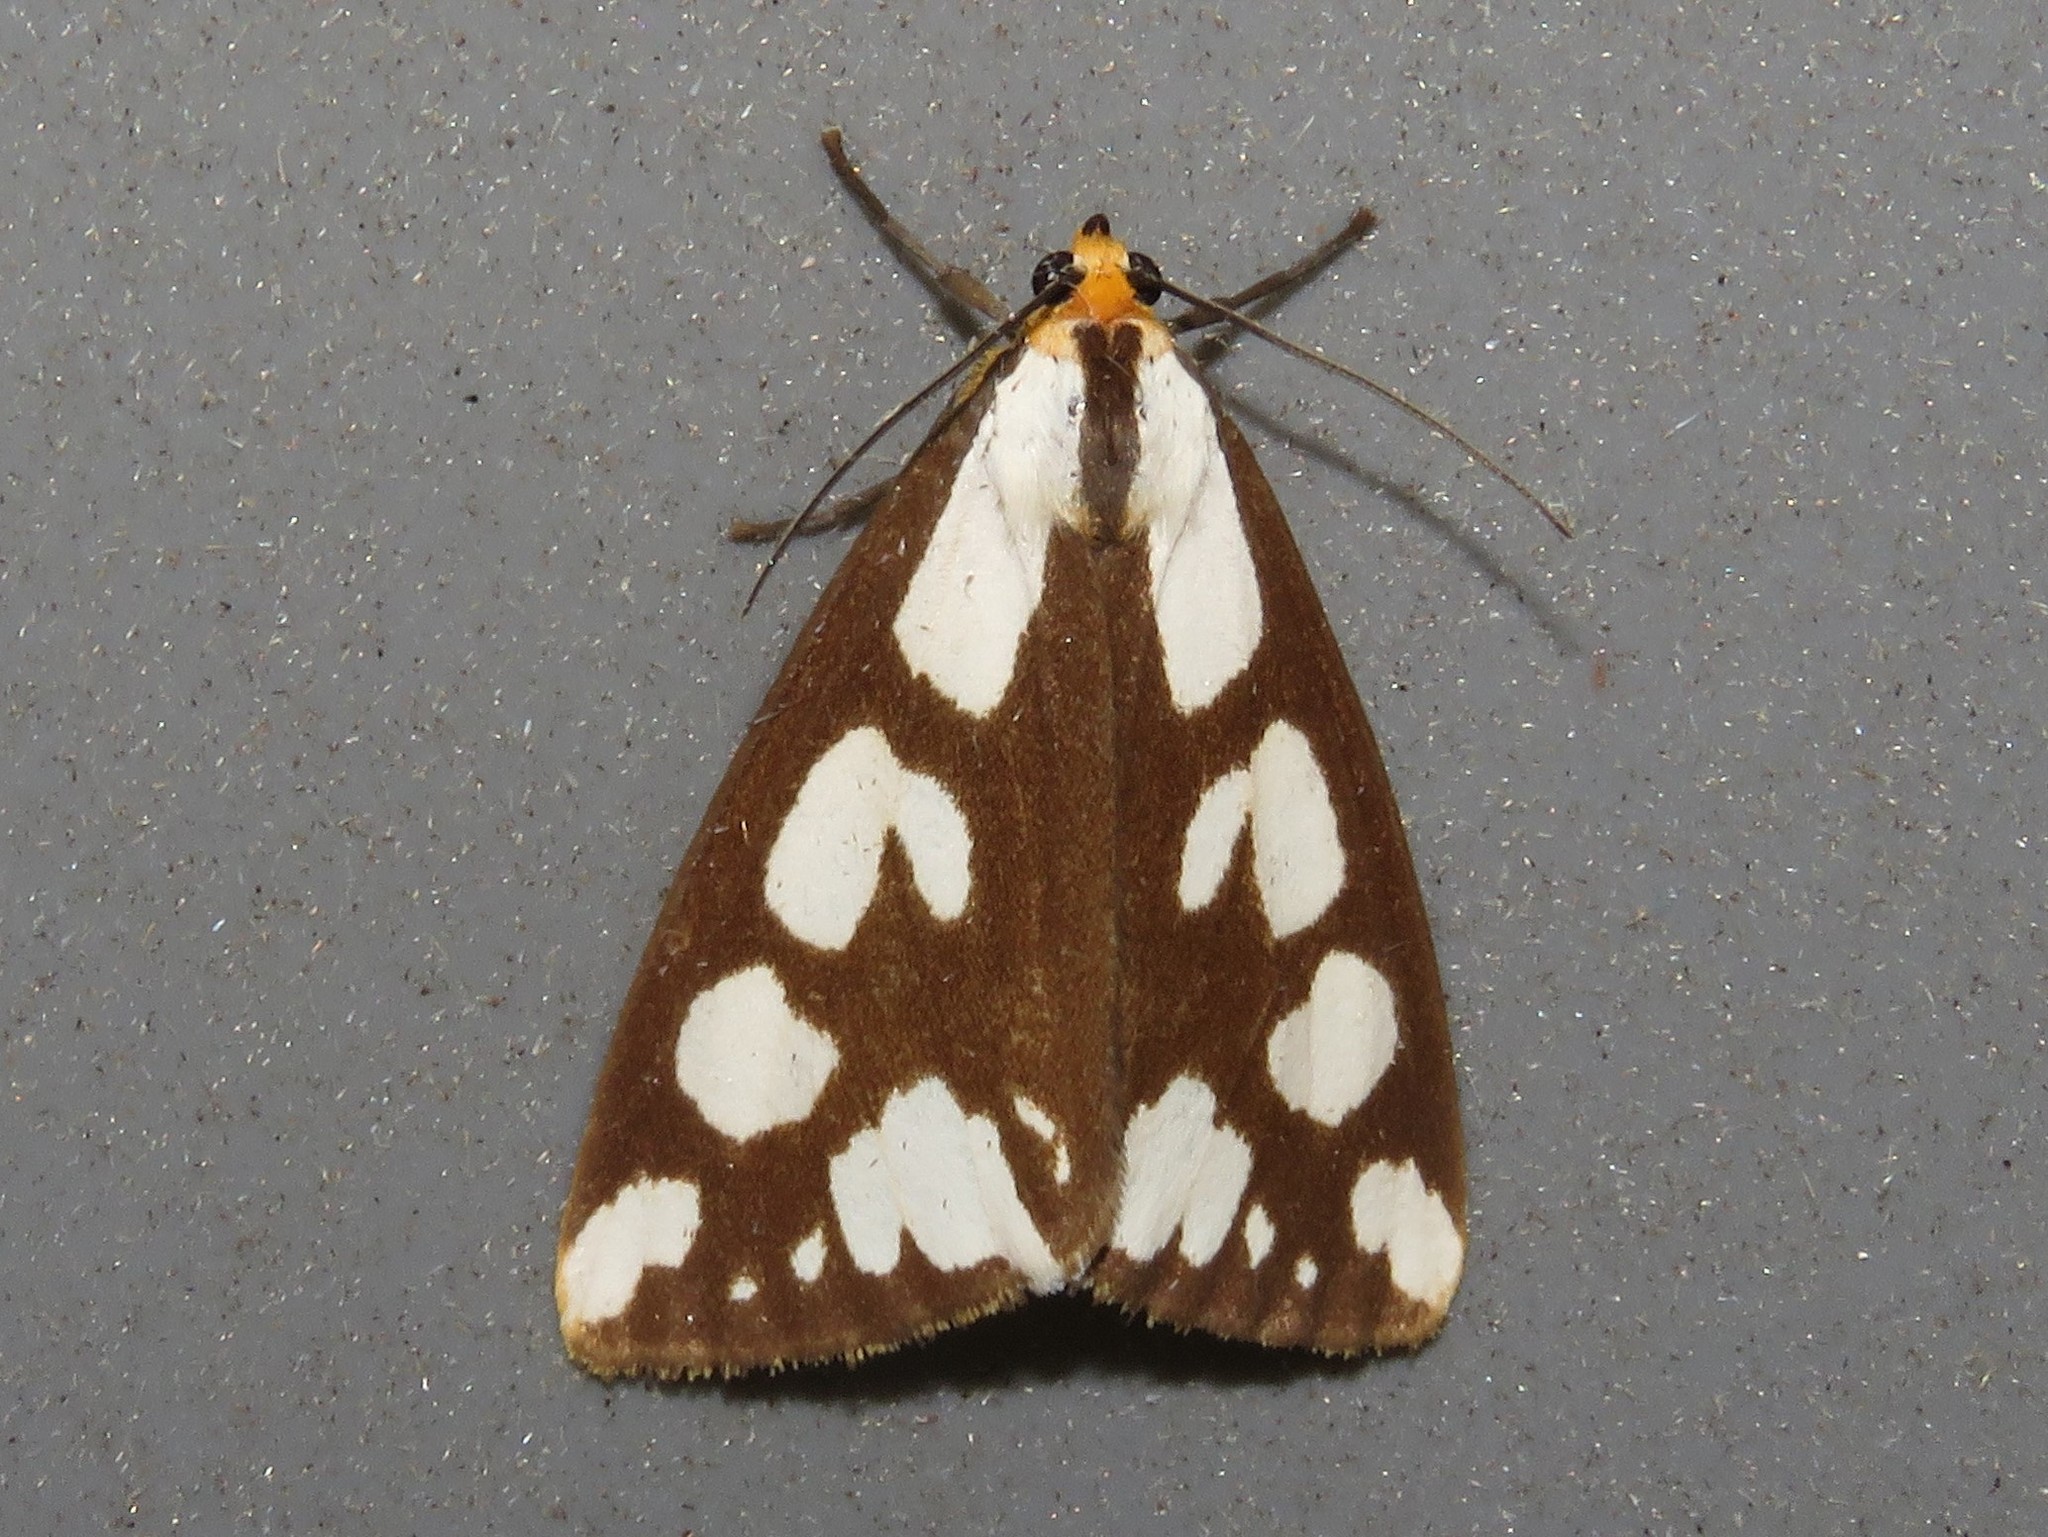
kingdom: Animalia
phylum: Arthropoda
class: Insecta
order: Lepidoptera
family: Erebidae
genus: Haploa
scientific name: Haploa confusa
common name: Confused haploa moth
